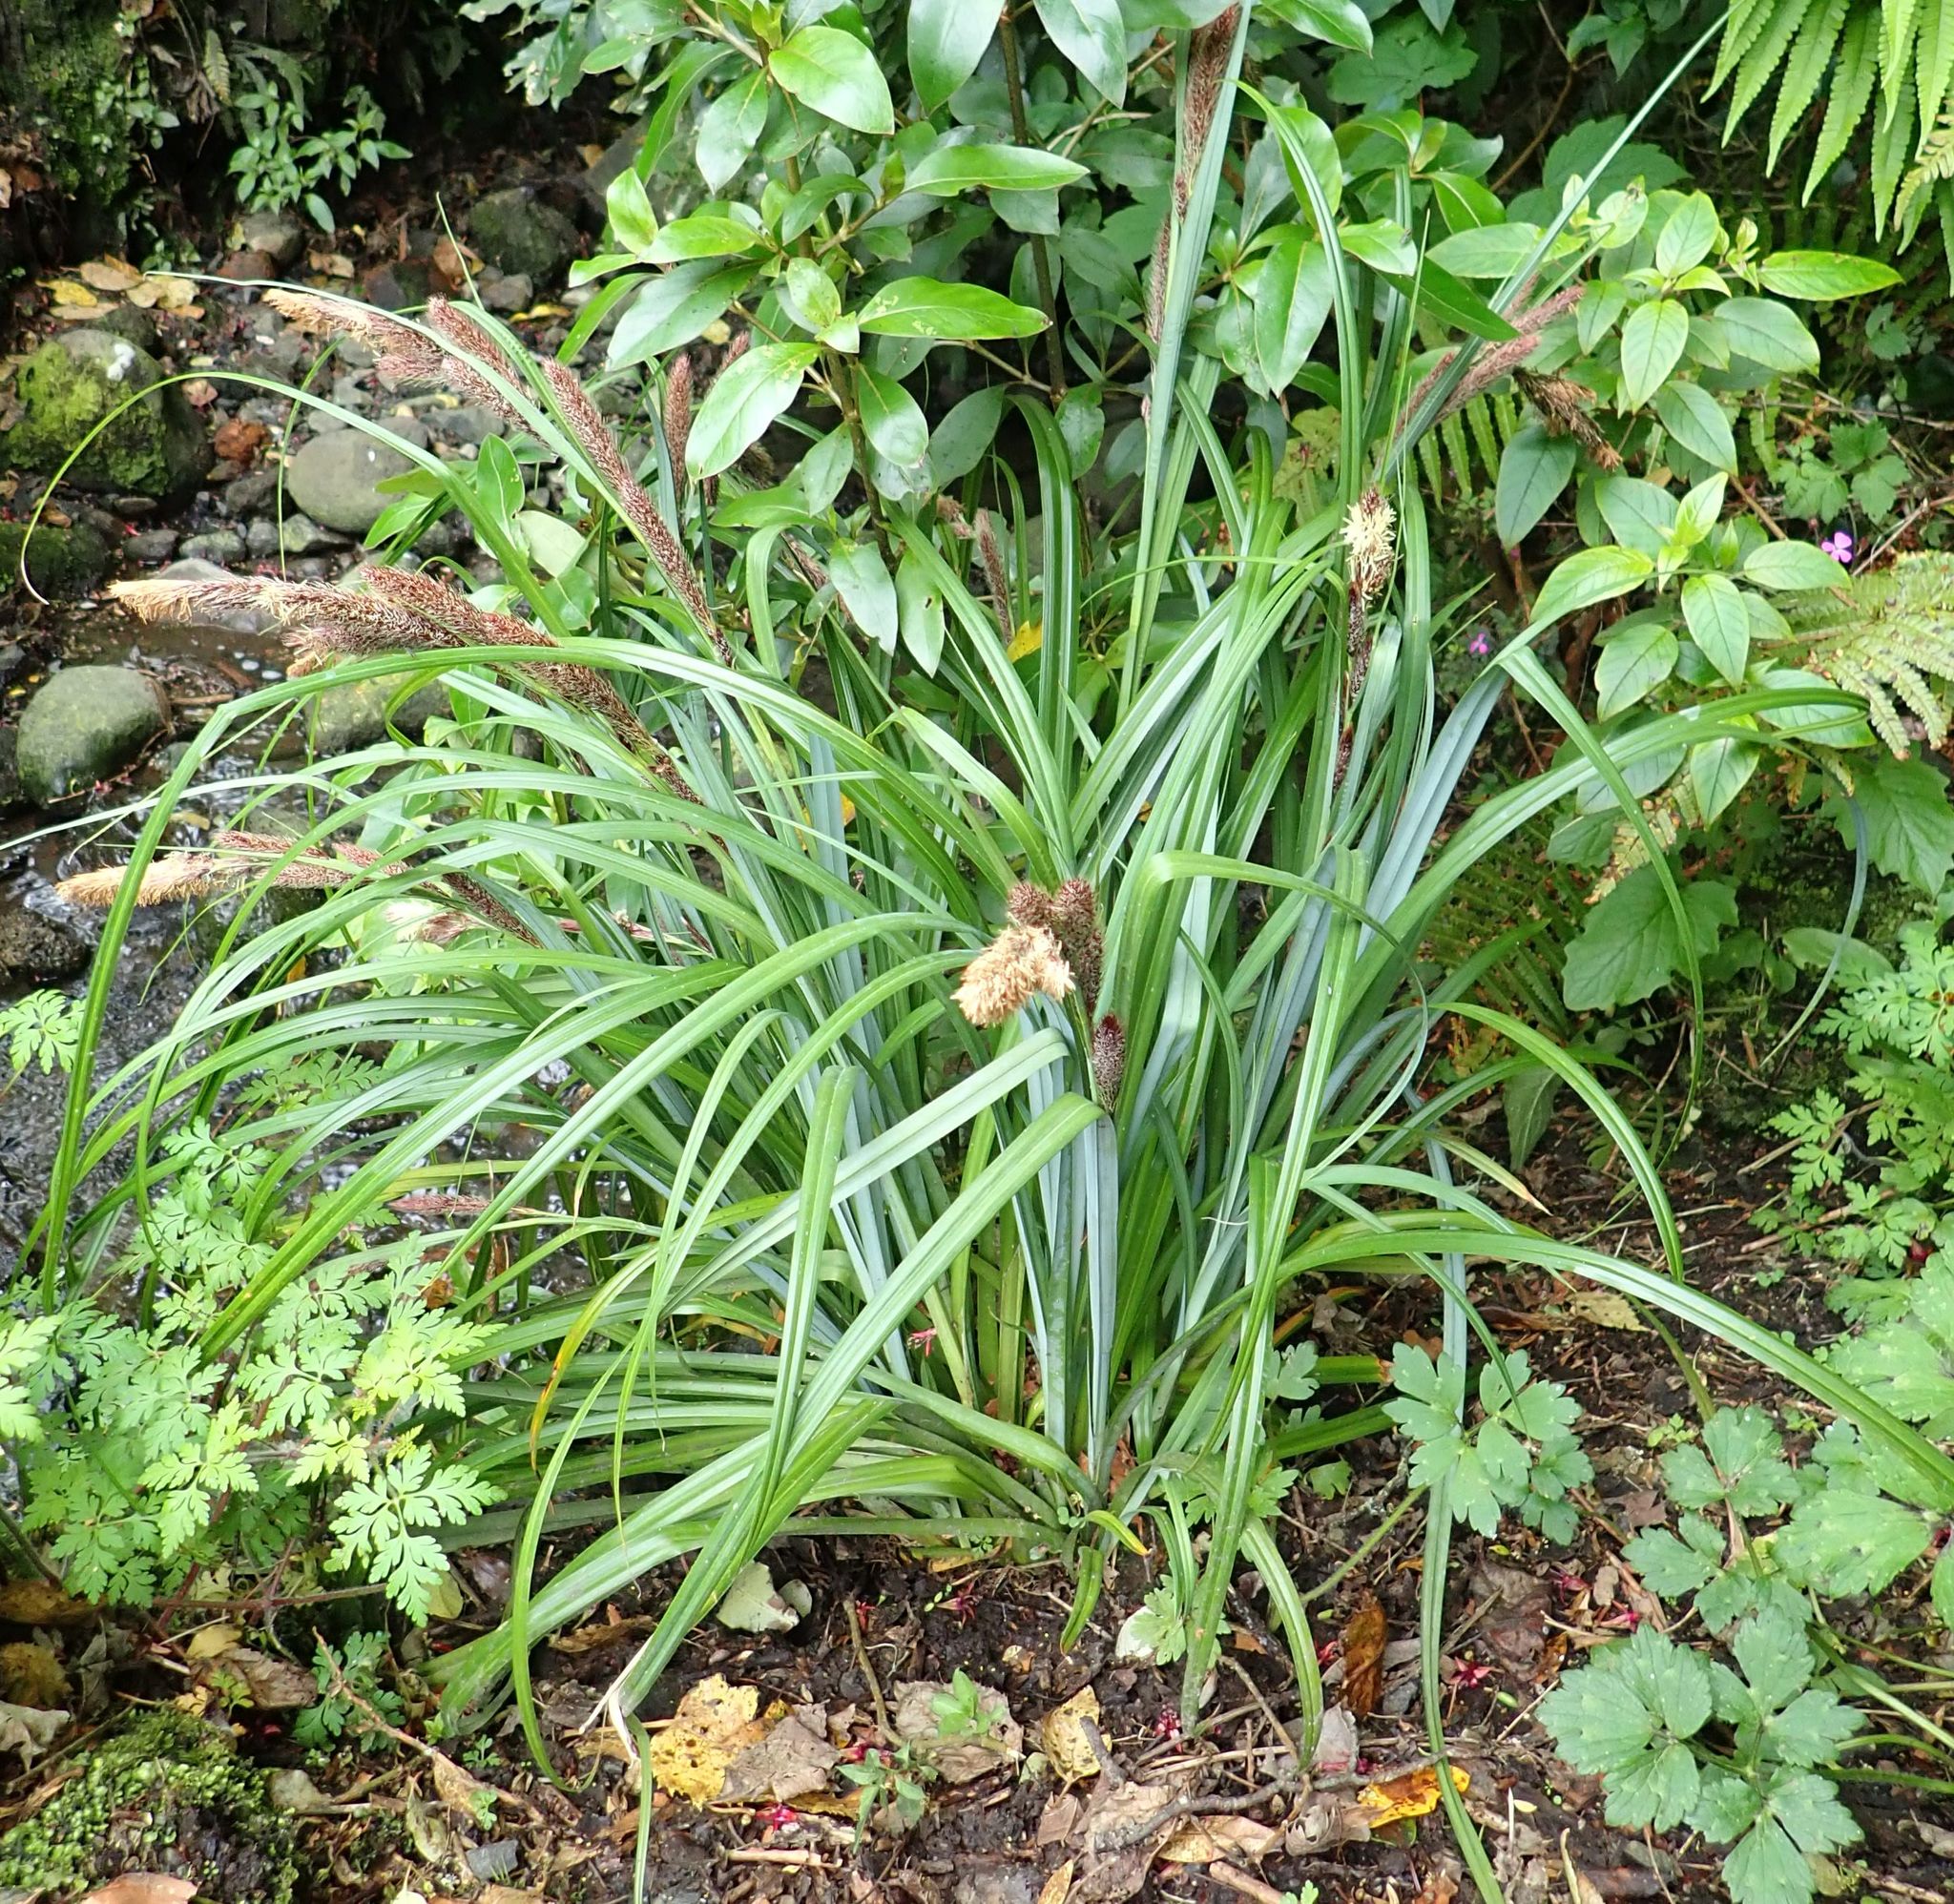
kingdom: Plantae
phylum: Tracheophyta
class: Liliopsida
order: Poales
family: Cyperaceae
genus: Carex
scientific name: Carex trifida
